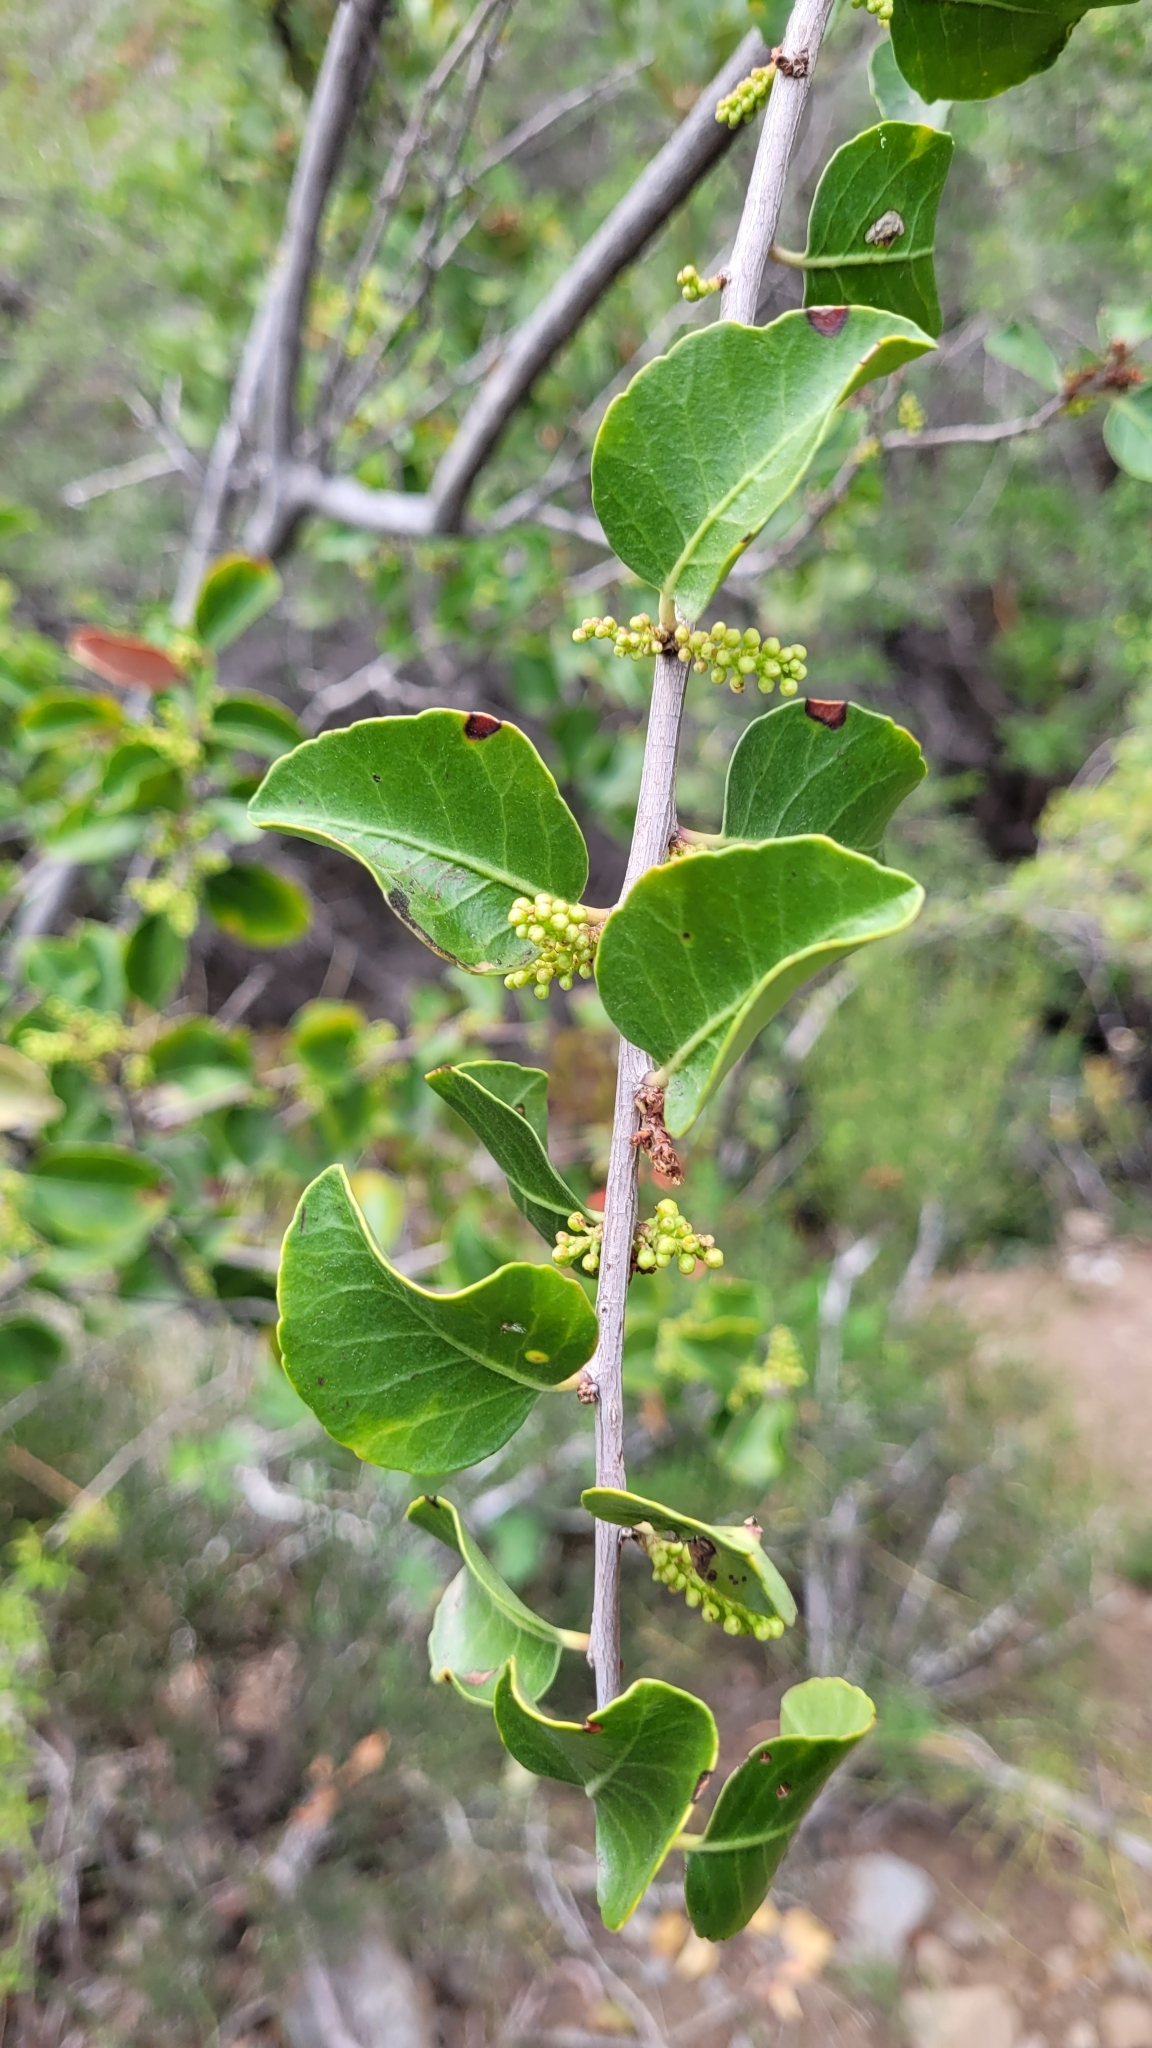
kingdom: Plantae
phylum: Tracheophyta
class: Magnoliopsida
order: Sapindales
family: Anacardiaceae
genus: Lithraea
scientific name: Lithraea caustica
